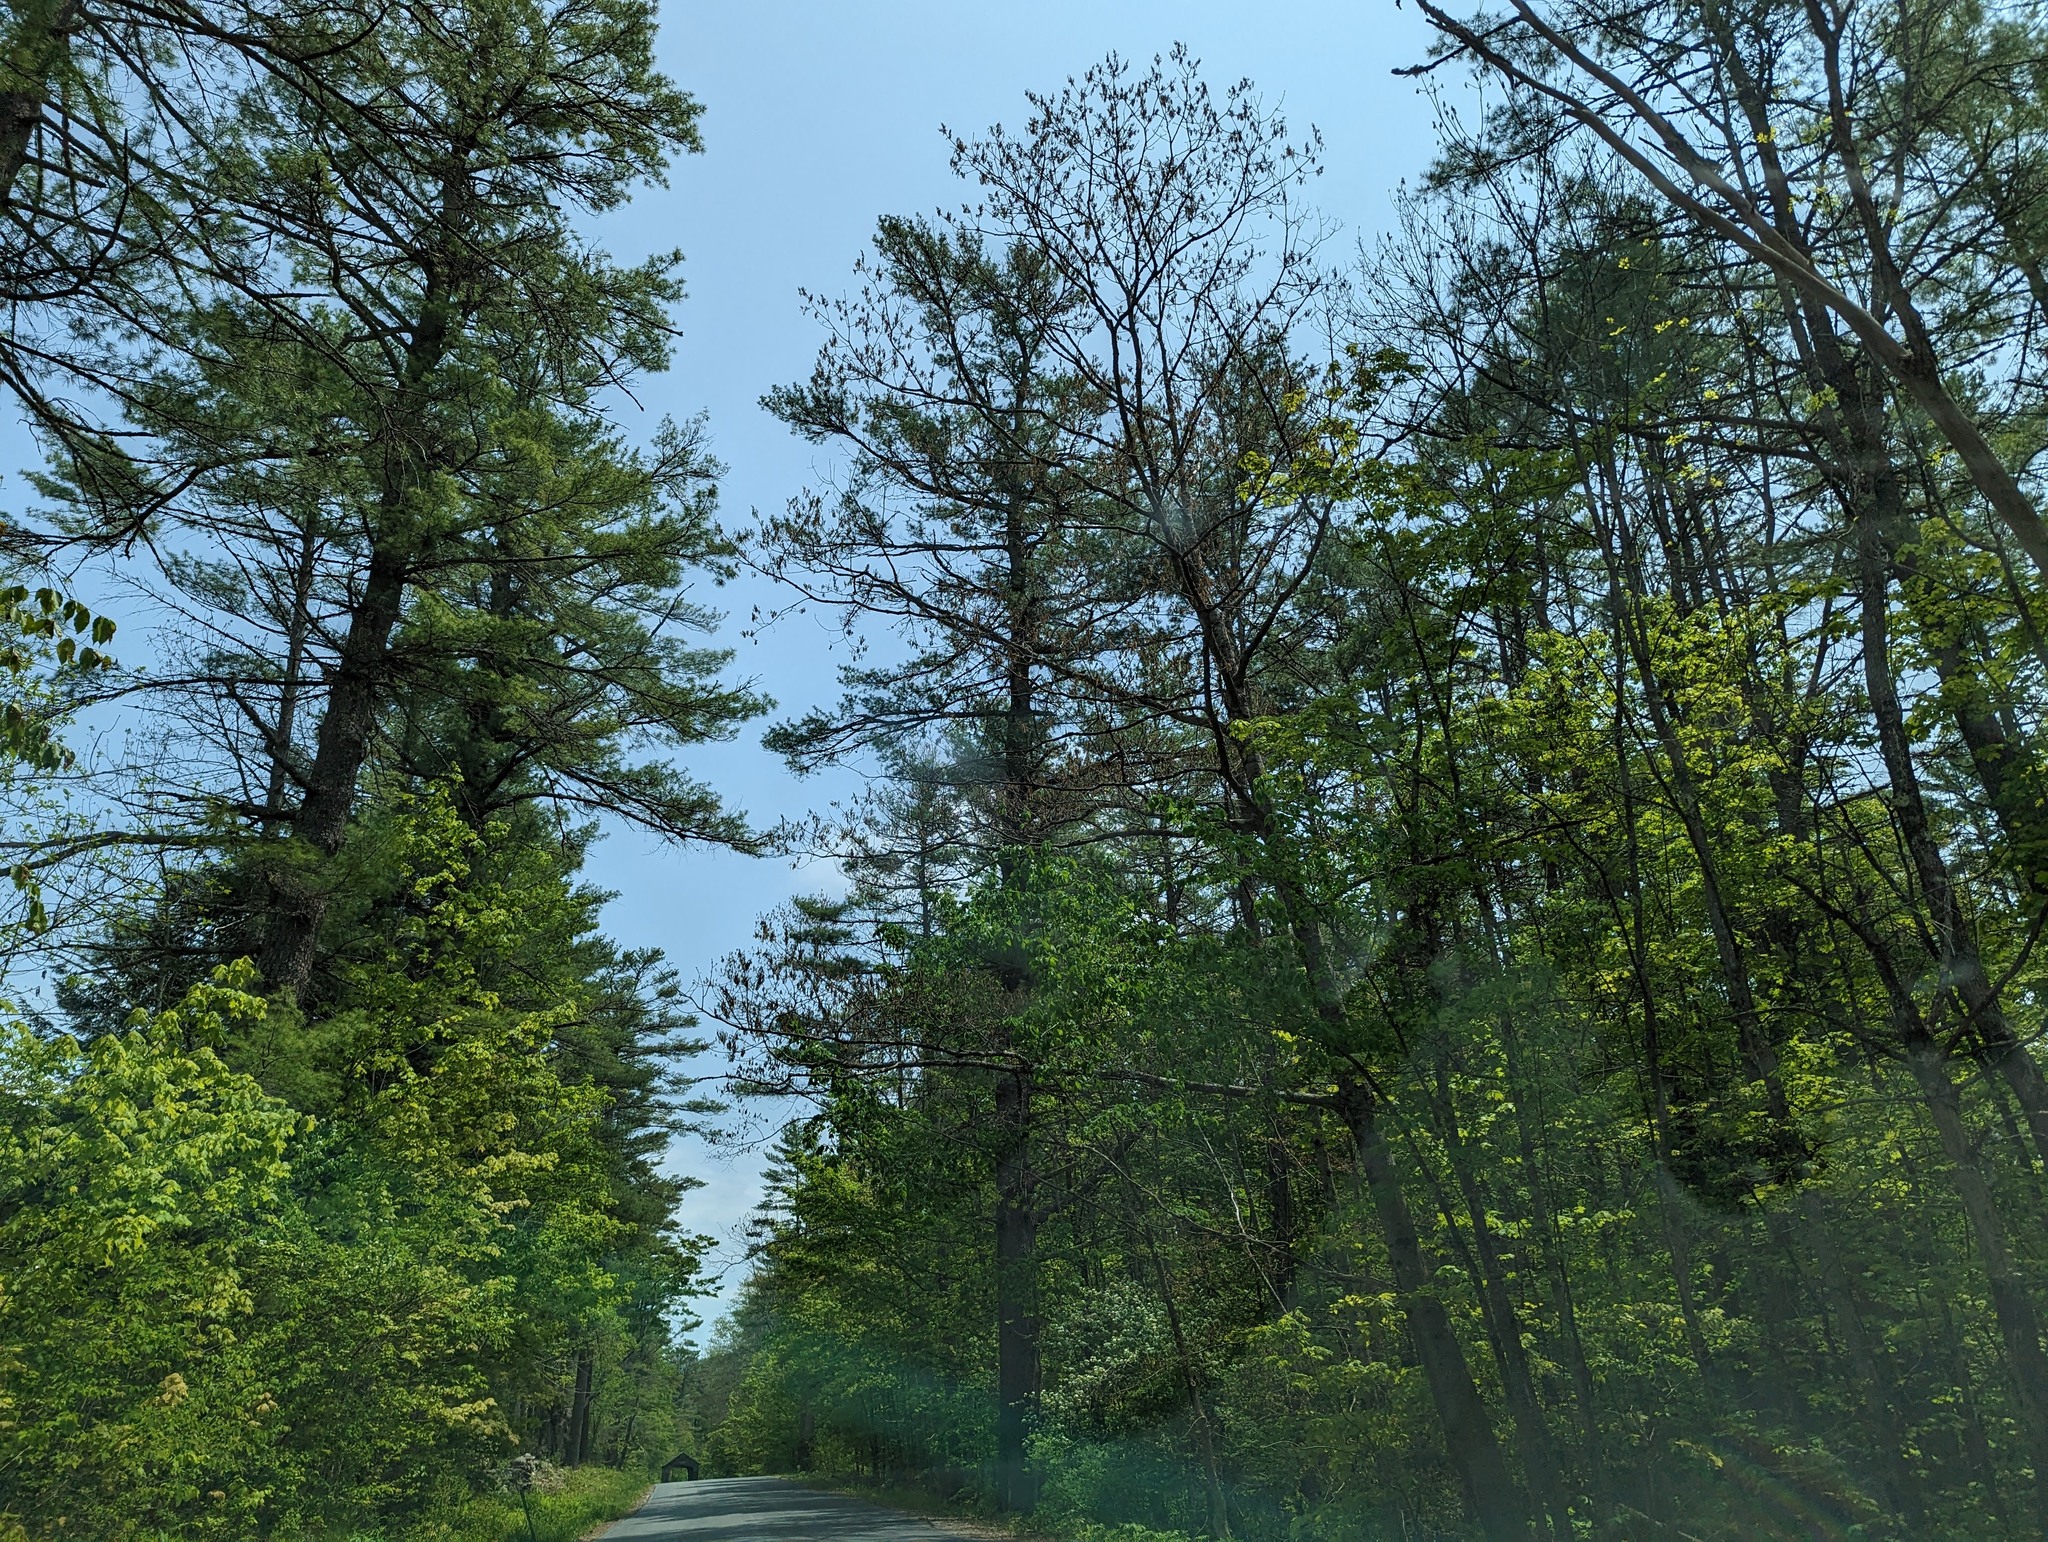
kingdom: Plantae
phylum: Tracheophyta
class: Pinopsida
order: Pinales
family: Pinaceae
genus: Pinus
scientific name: Pinus strobus
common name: Weymouth pine
